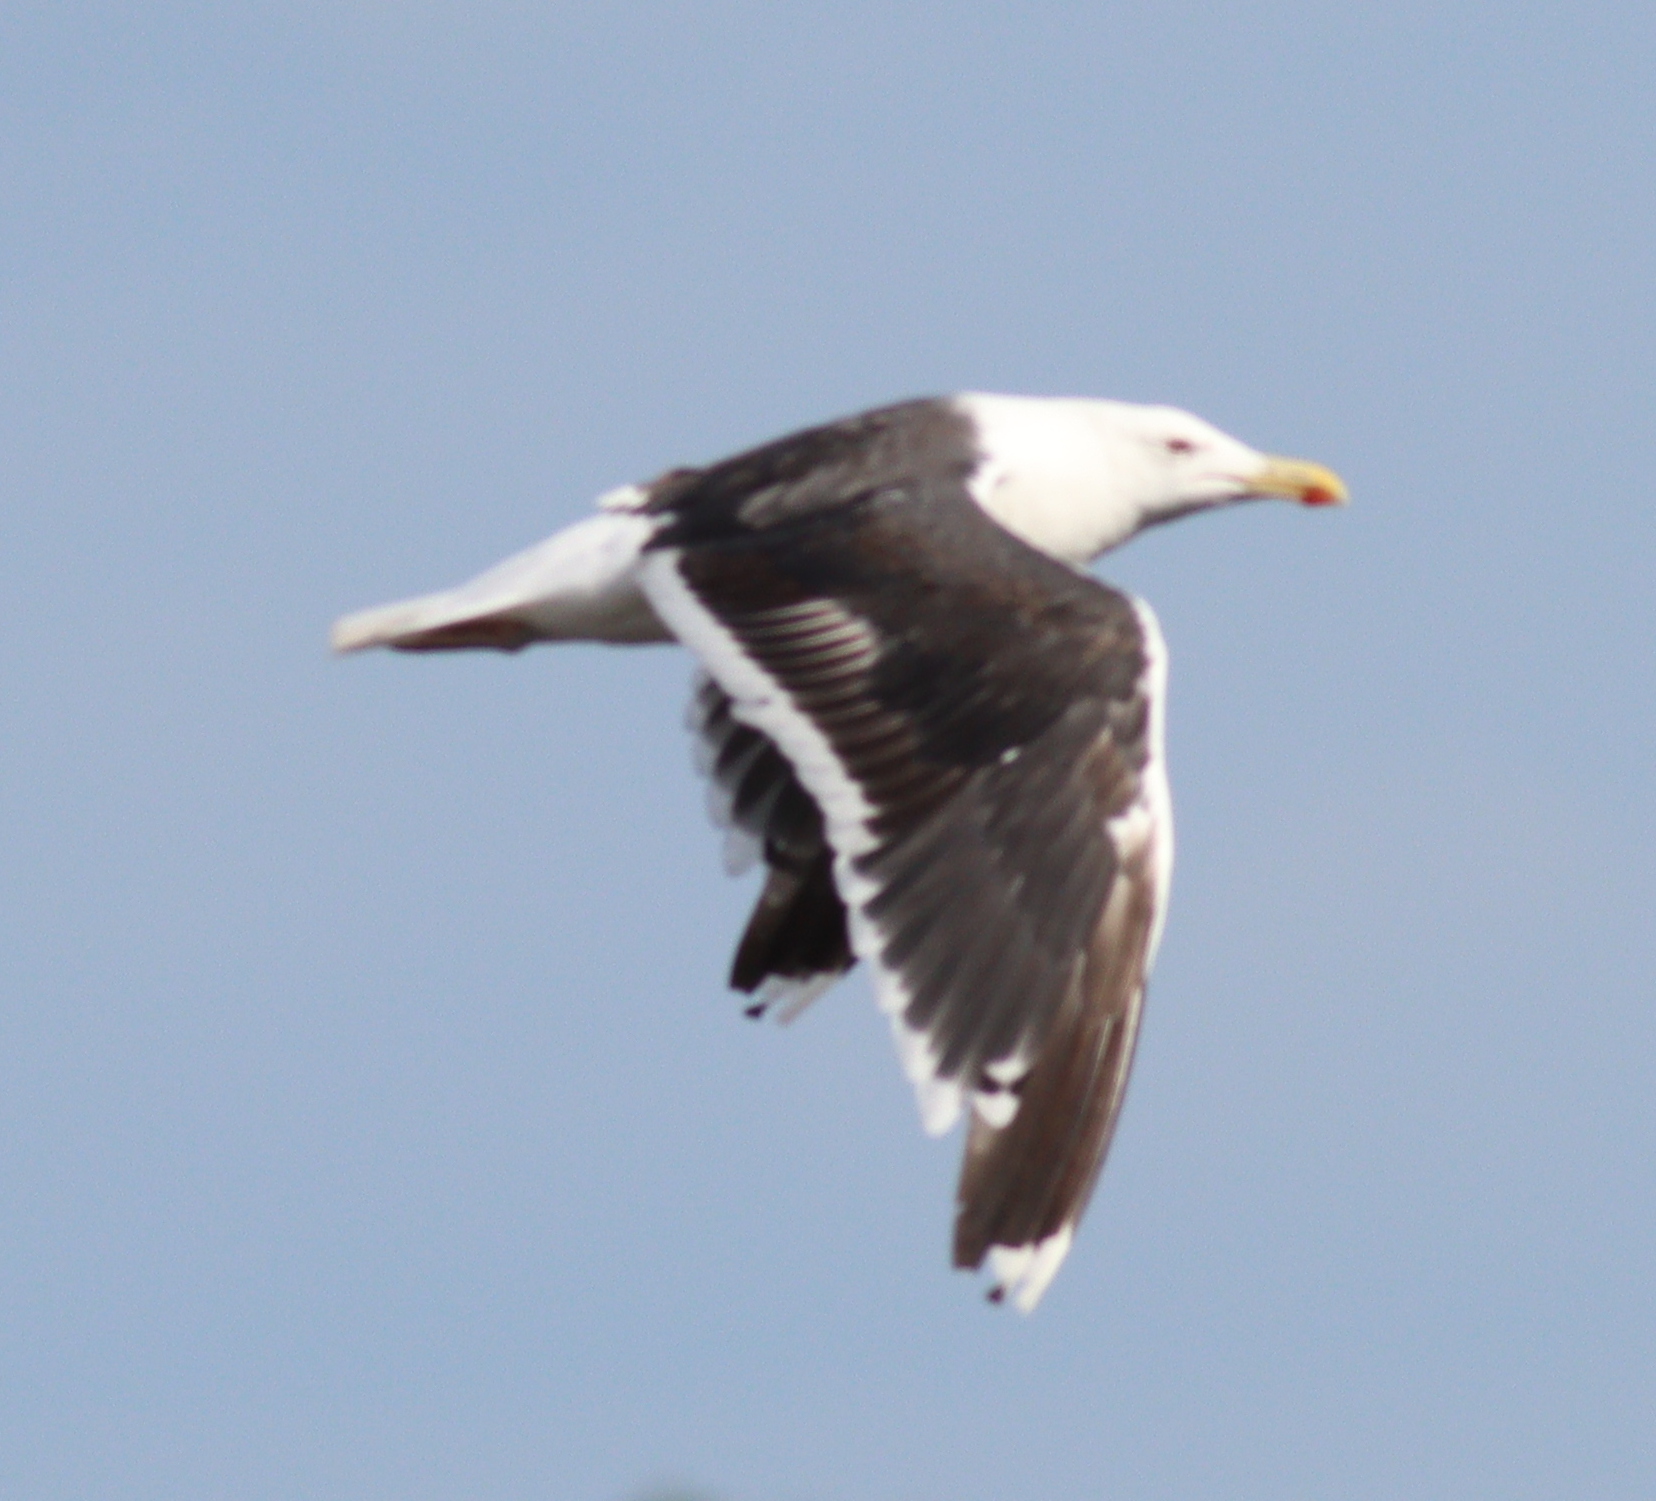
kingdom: Animalia
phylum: Chordata
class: Aves
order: Charadriiformes
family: Laridae
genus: Larus
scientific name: Larus marinus
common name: Great black-backed gull
